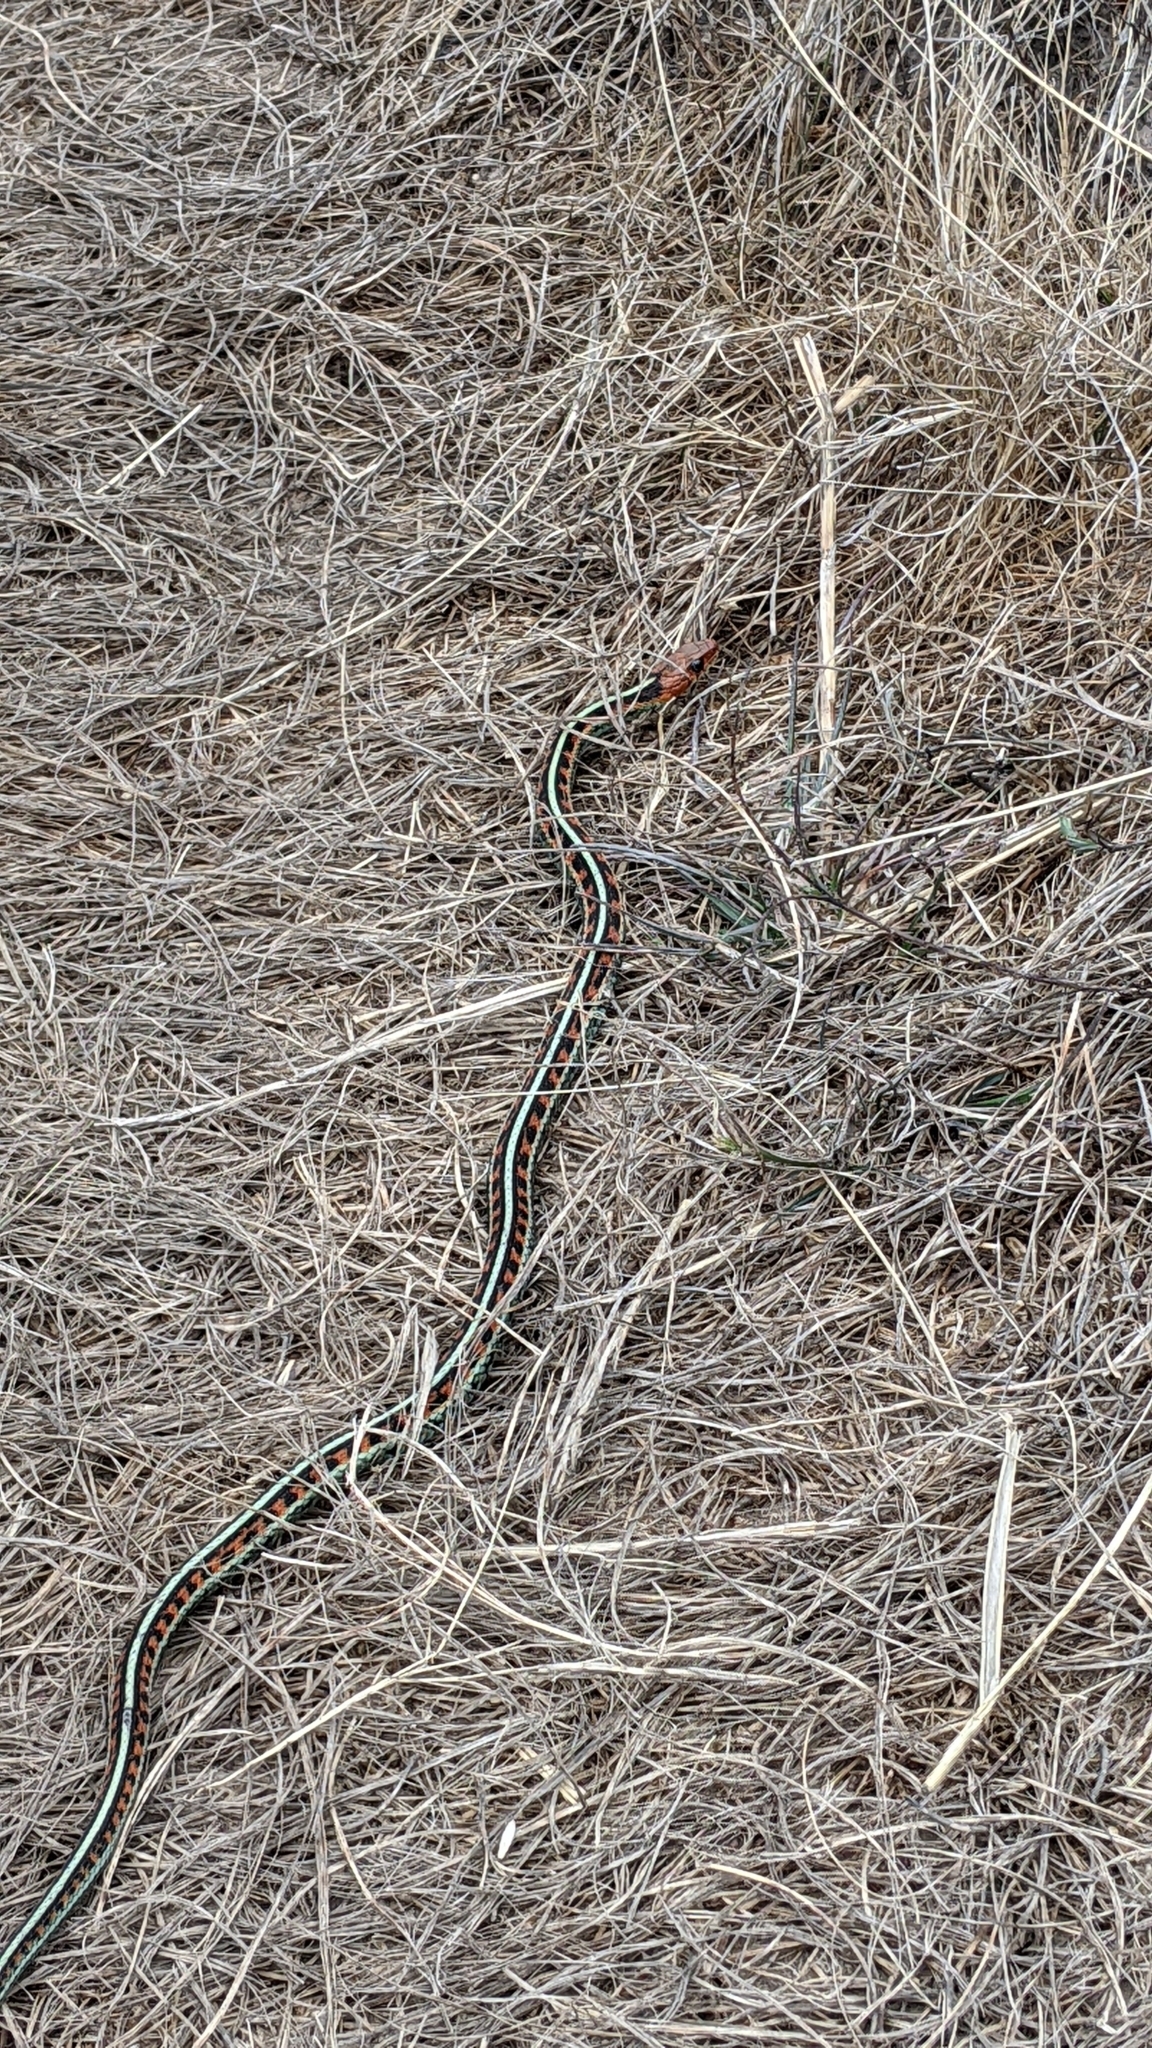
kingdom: Animalia
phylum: Chordata
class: Squamata
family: Colubridae
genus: Thamnophis
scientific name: Thamnophis sirtalis
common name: Common garter snake
